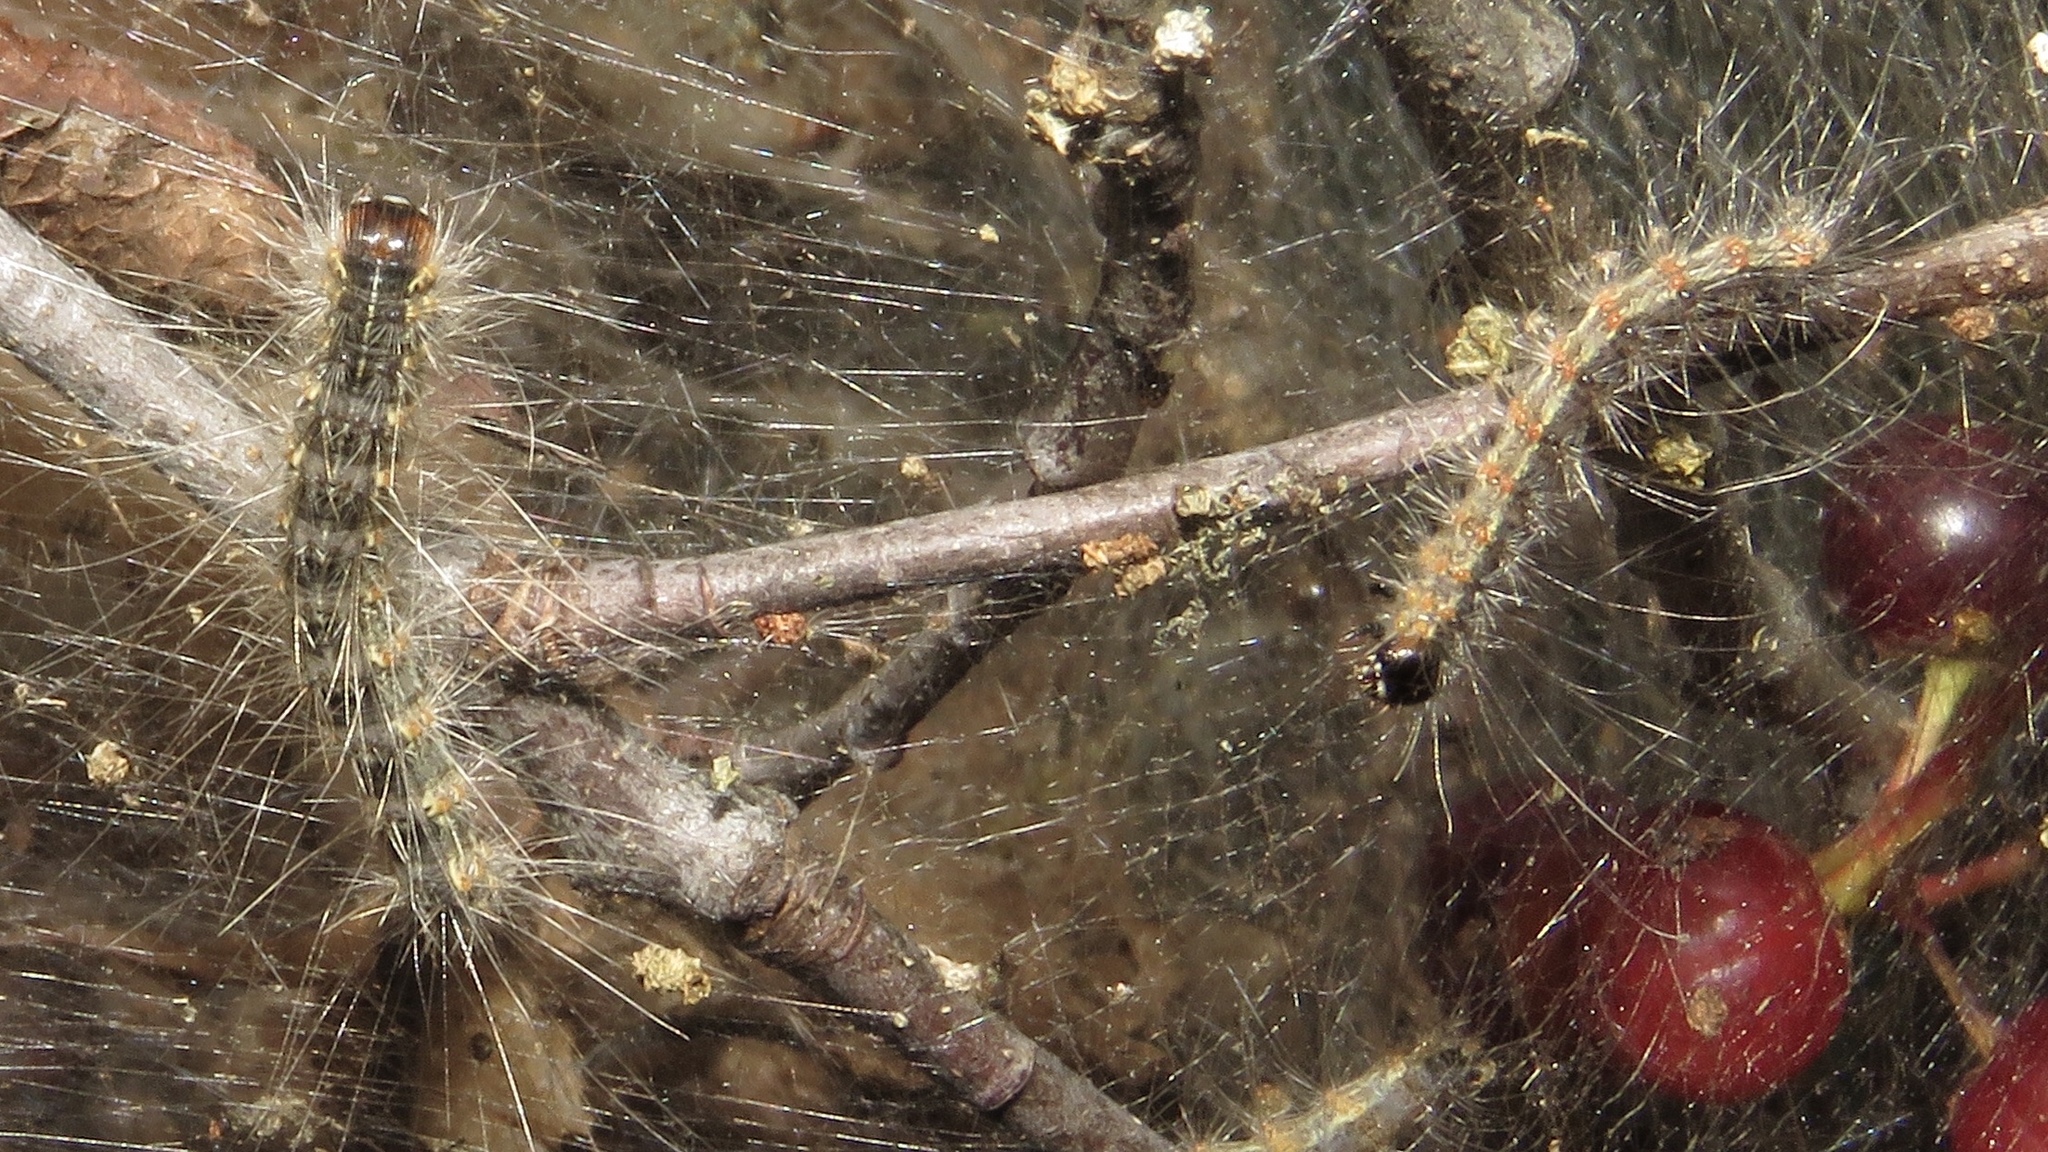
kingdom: Animalia
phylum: Arthropoda
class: Insecta
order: Lepidoptera
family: Erebidae
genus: Hyphantria
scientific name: Hyphantria cunea
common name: American white moth
